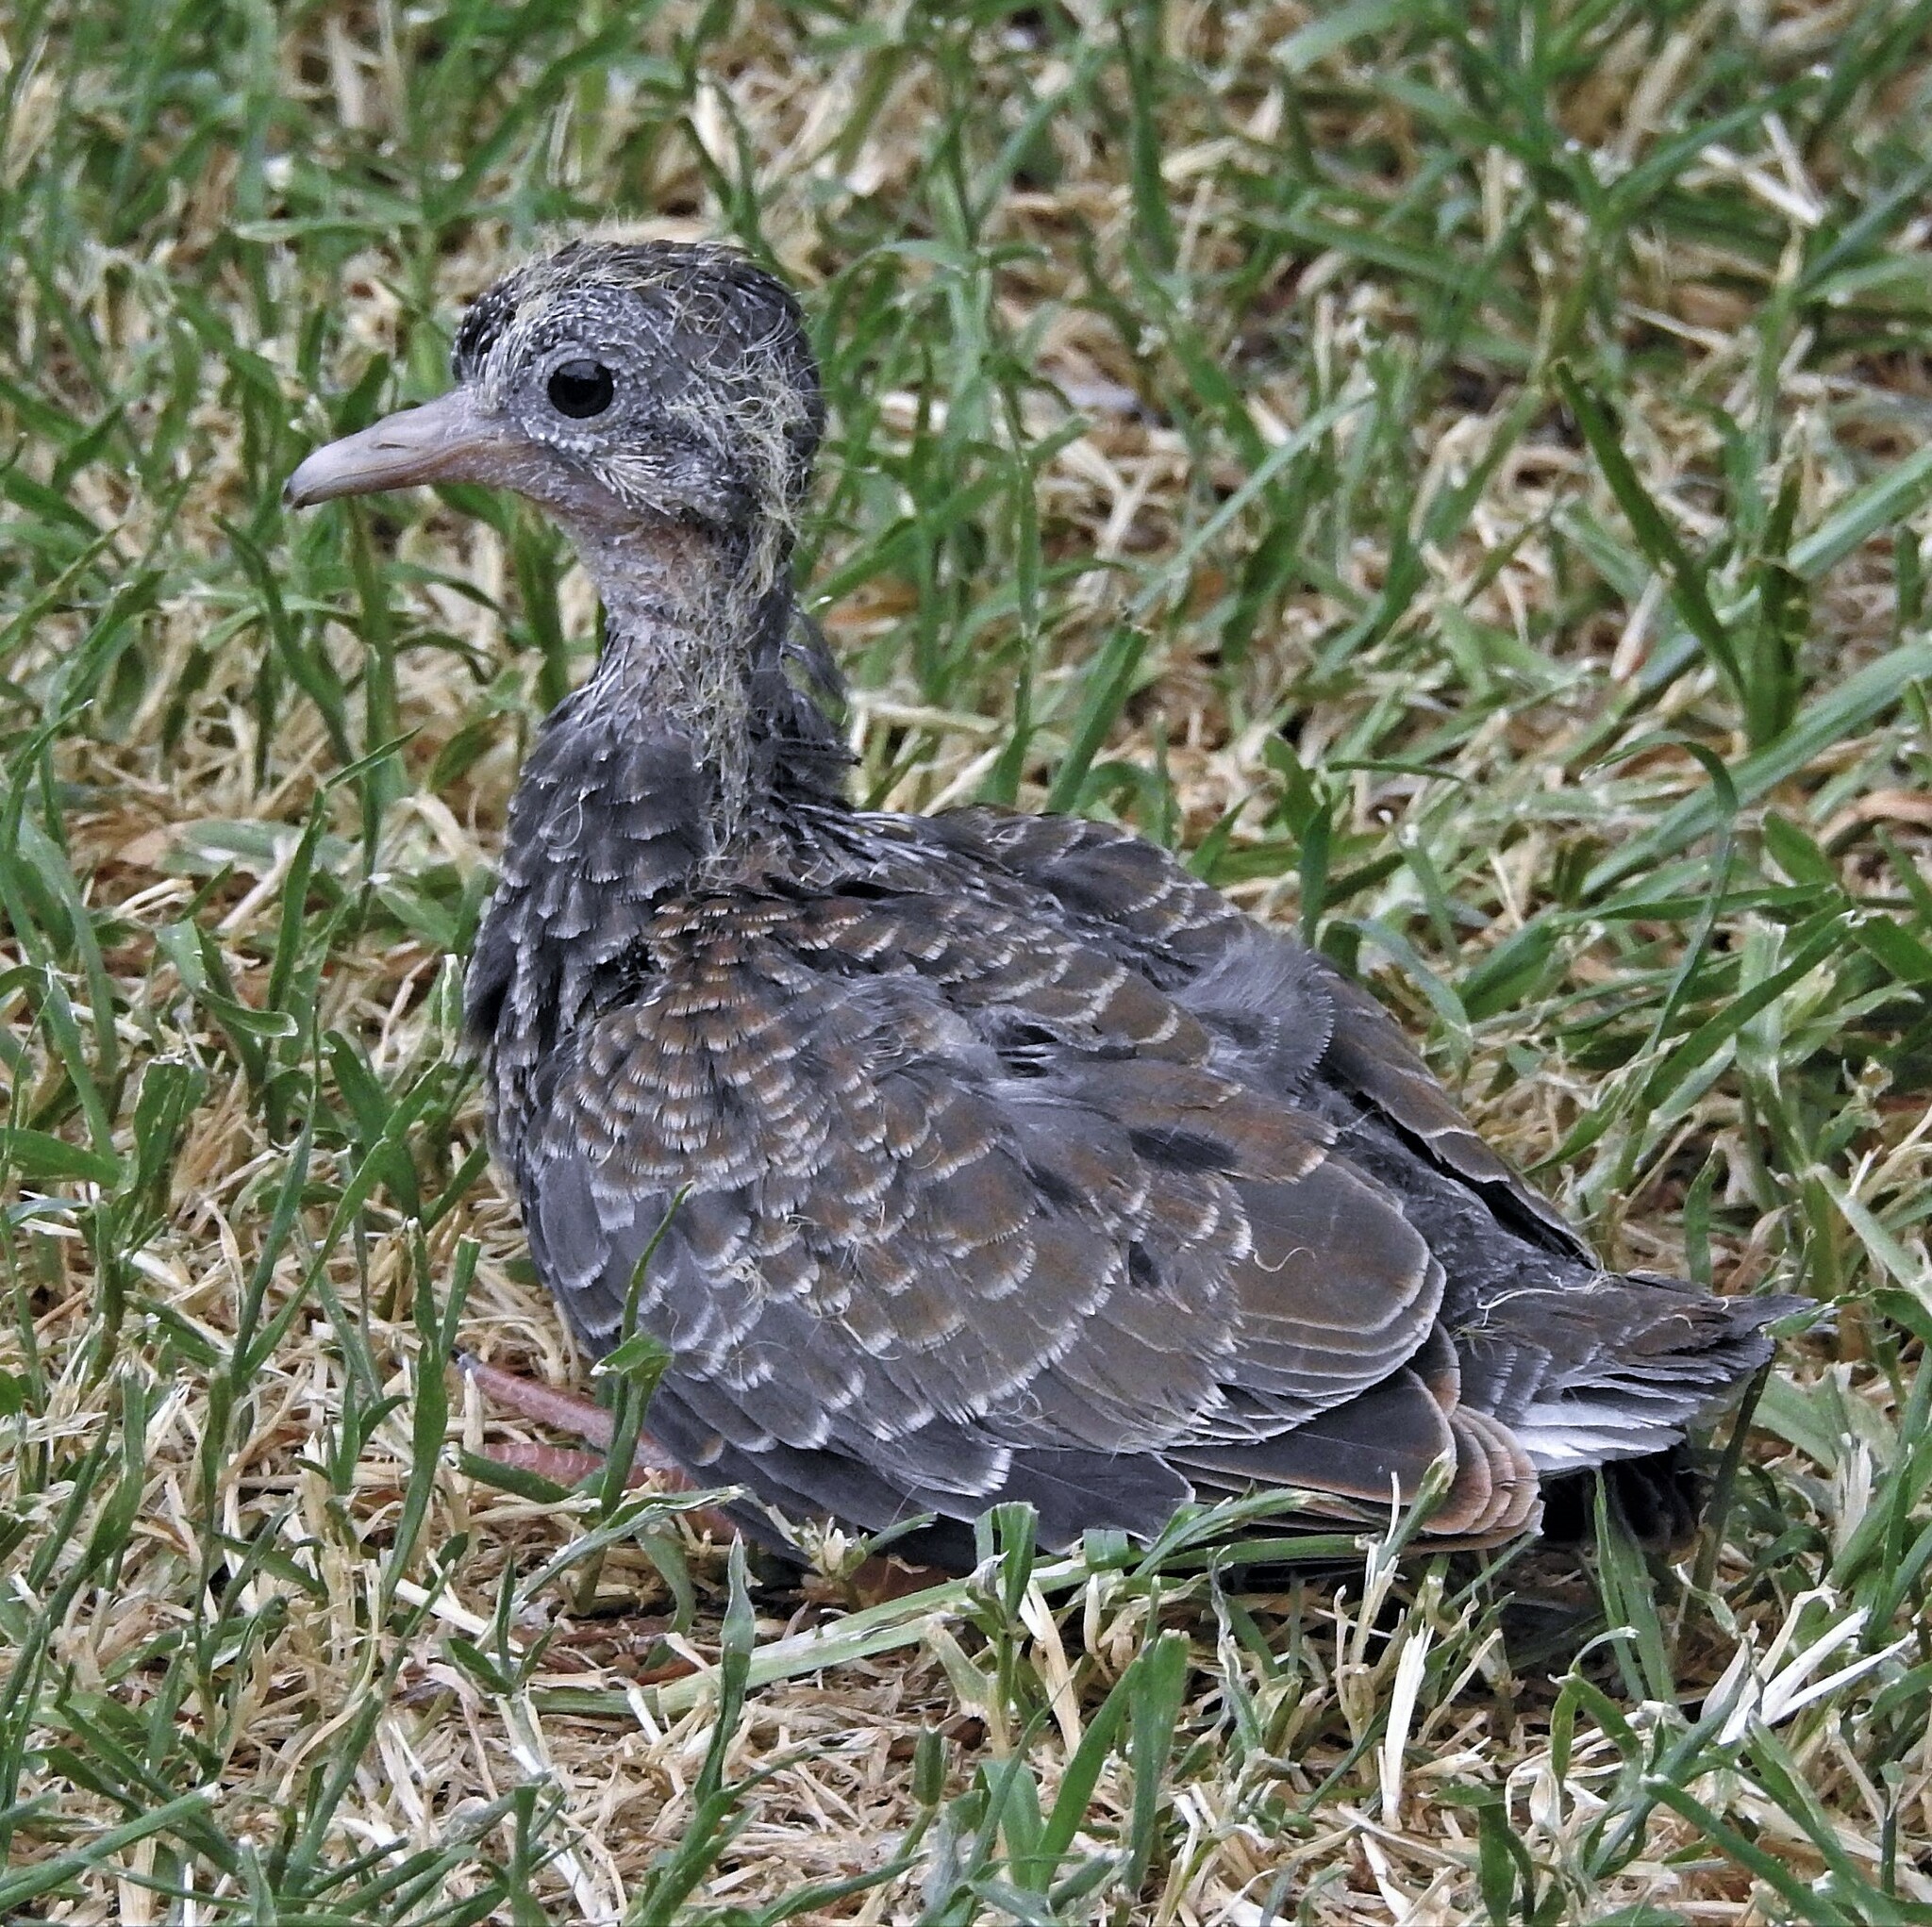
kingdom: Animalia
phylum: Chordata
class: Aves
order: Columbiformes
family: Columbidae
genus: Zenaida
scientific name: Zenaida auriculata
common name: Eared dove
